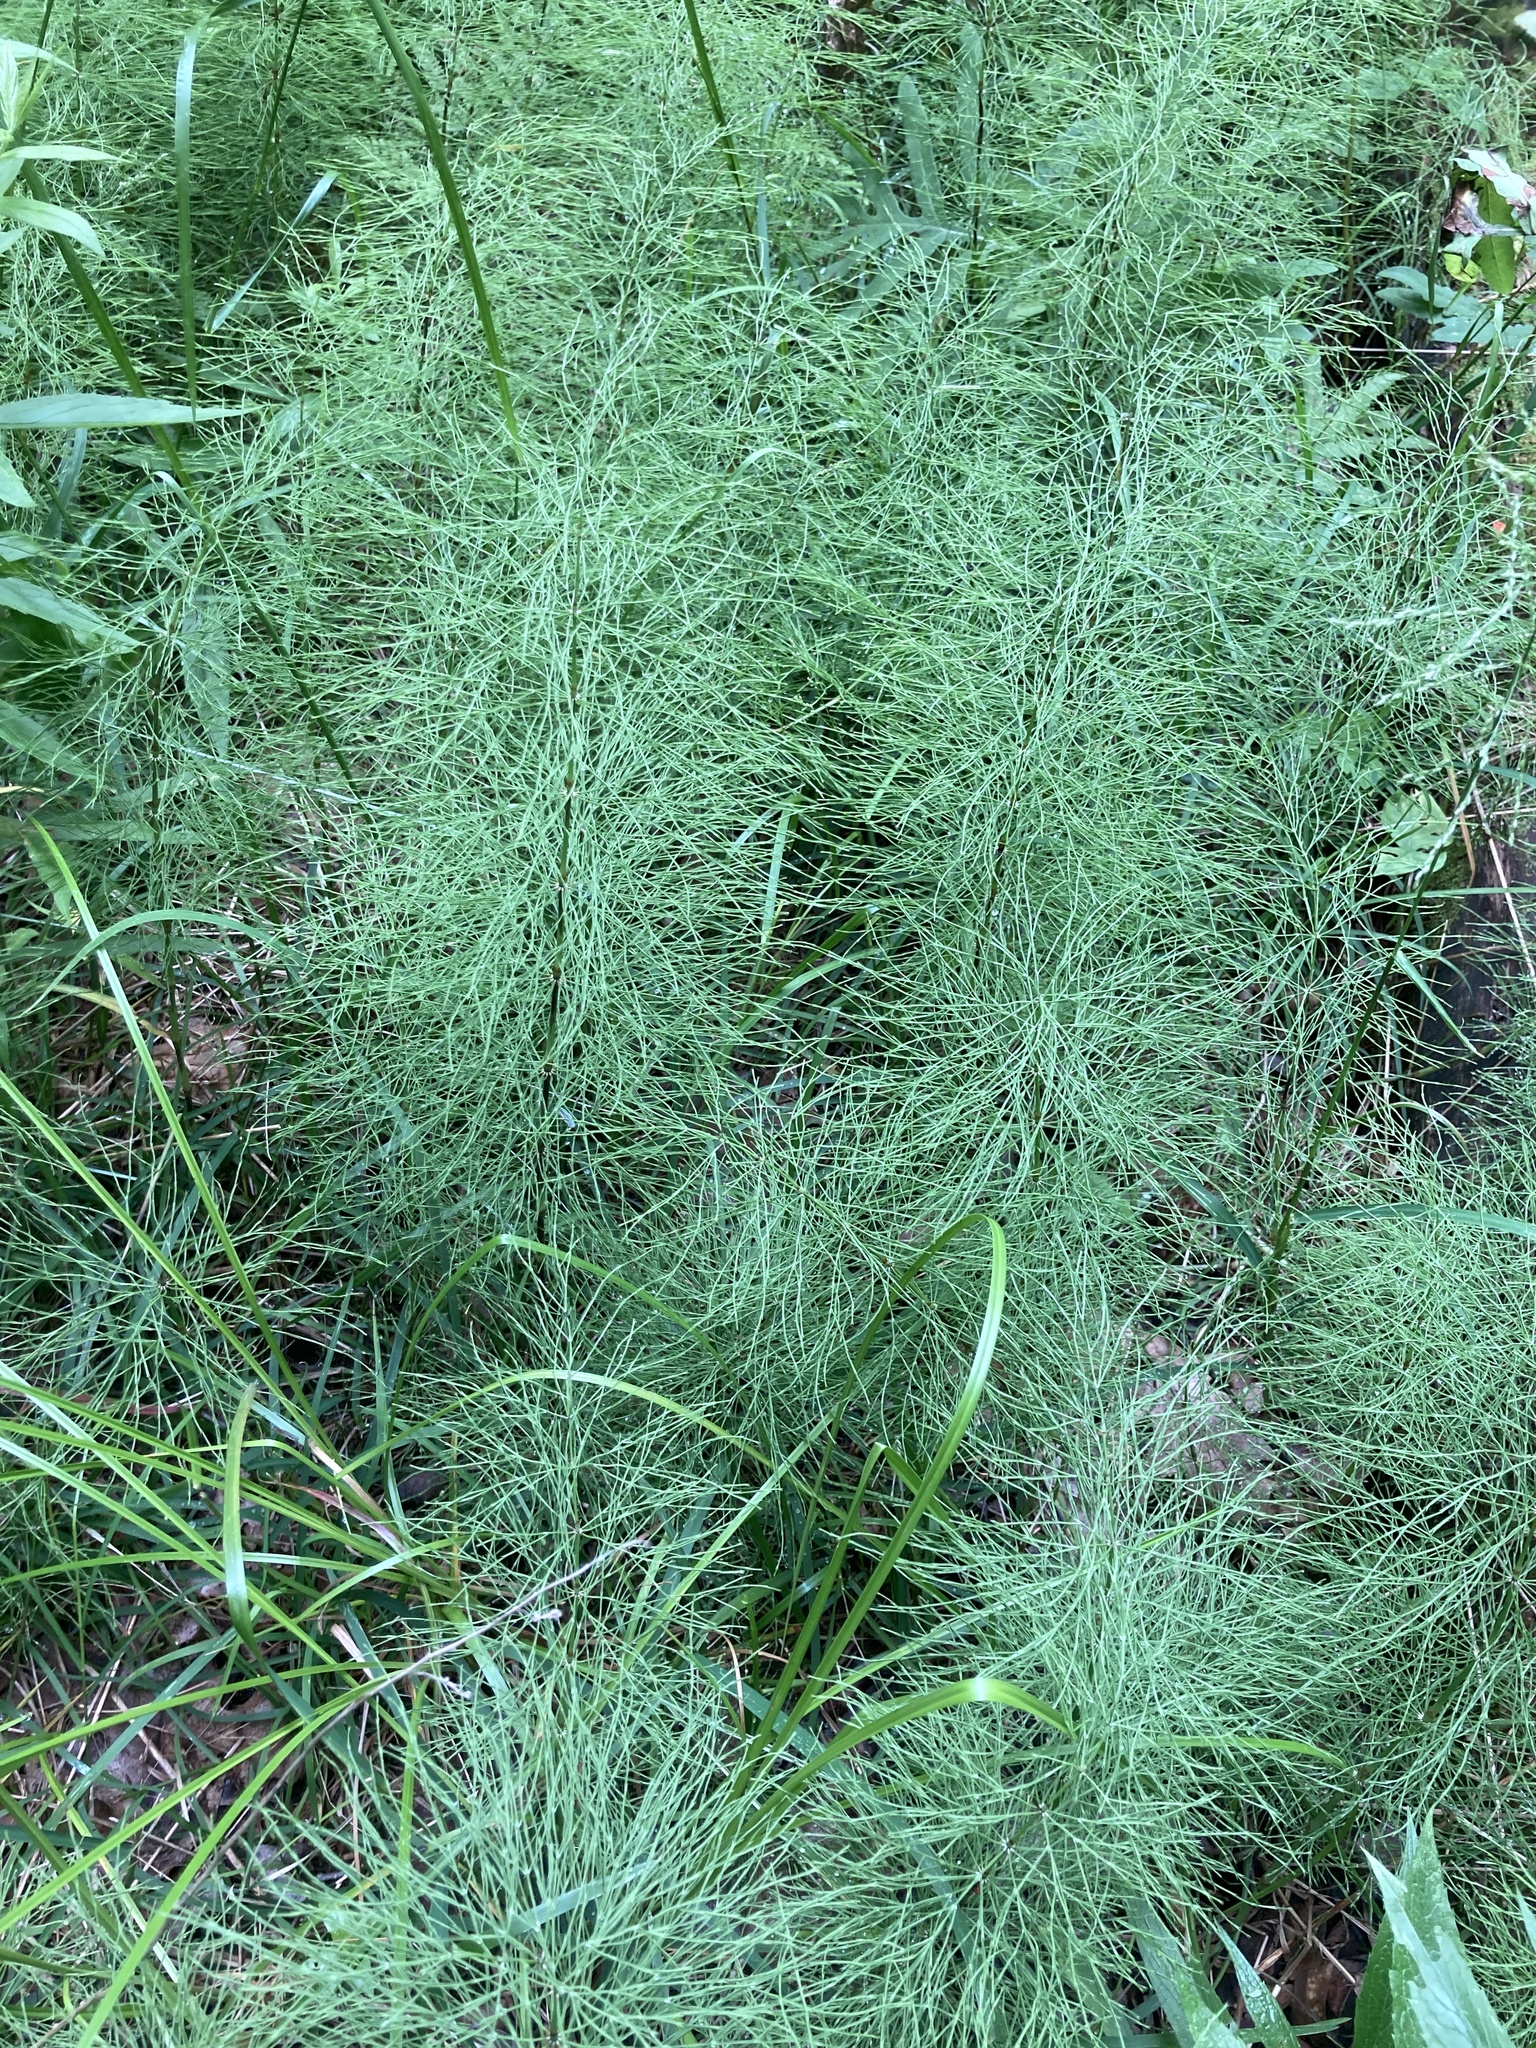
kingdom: Plantae
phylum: Tracheophyta
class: Polypodiopsida
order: Equisetales
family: Equisetaceae
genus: Equisetum
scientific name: Equisetum sylvaticum
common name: Wood horsetail
